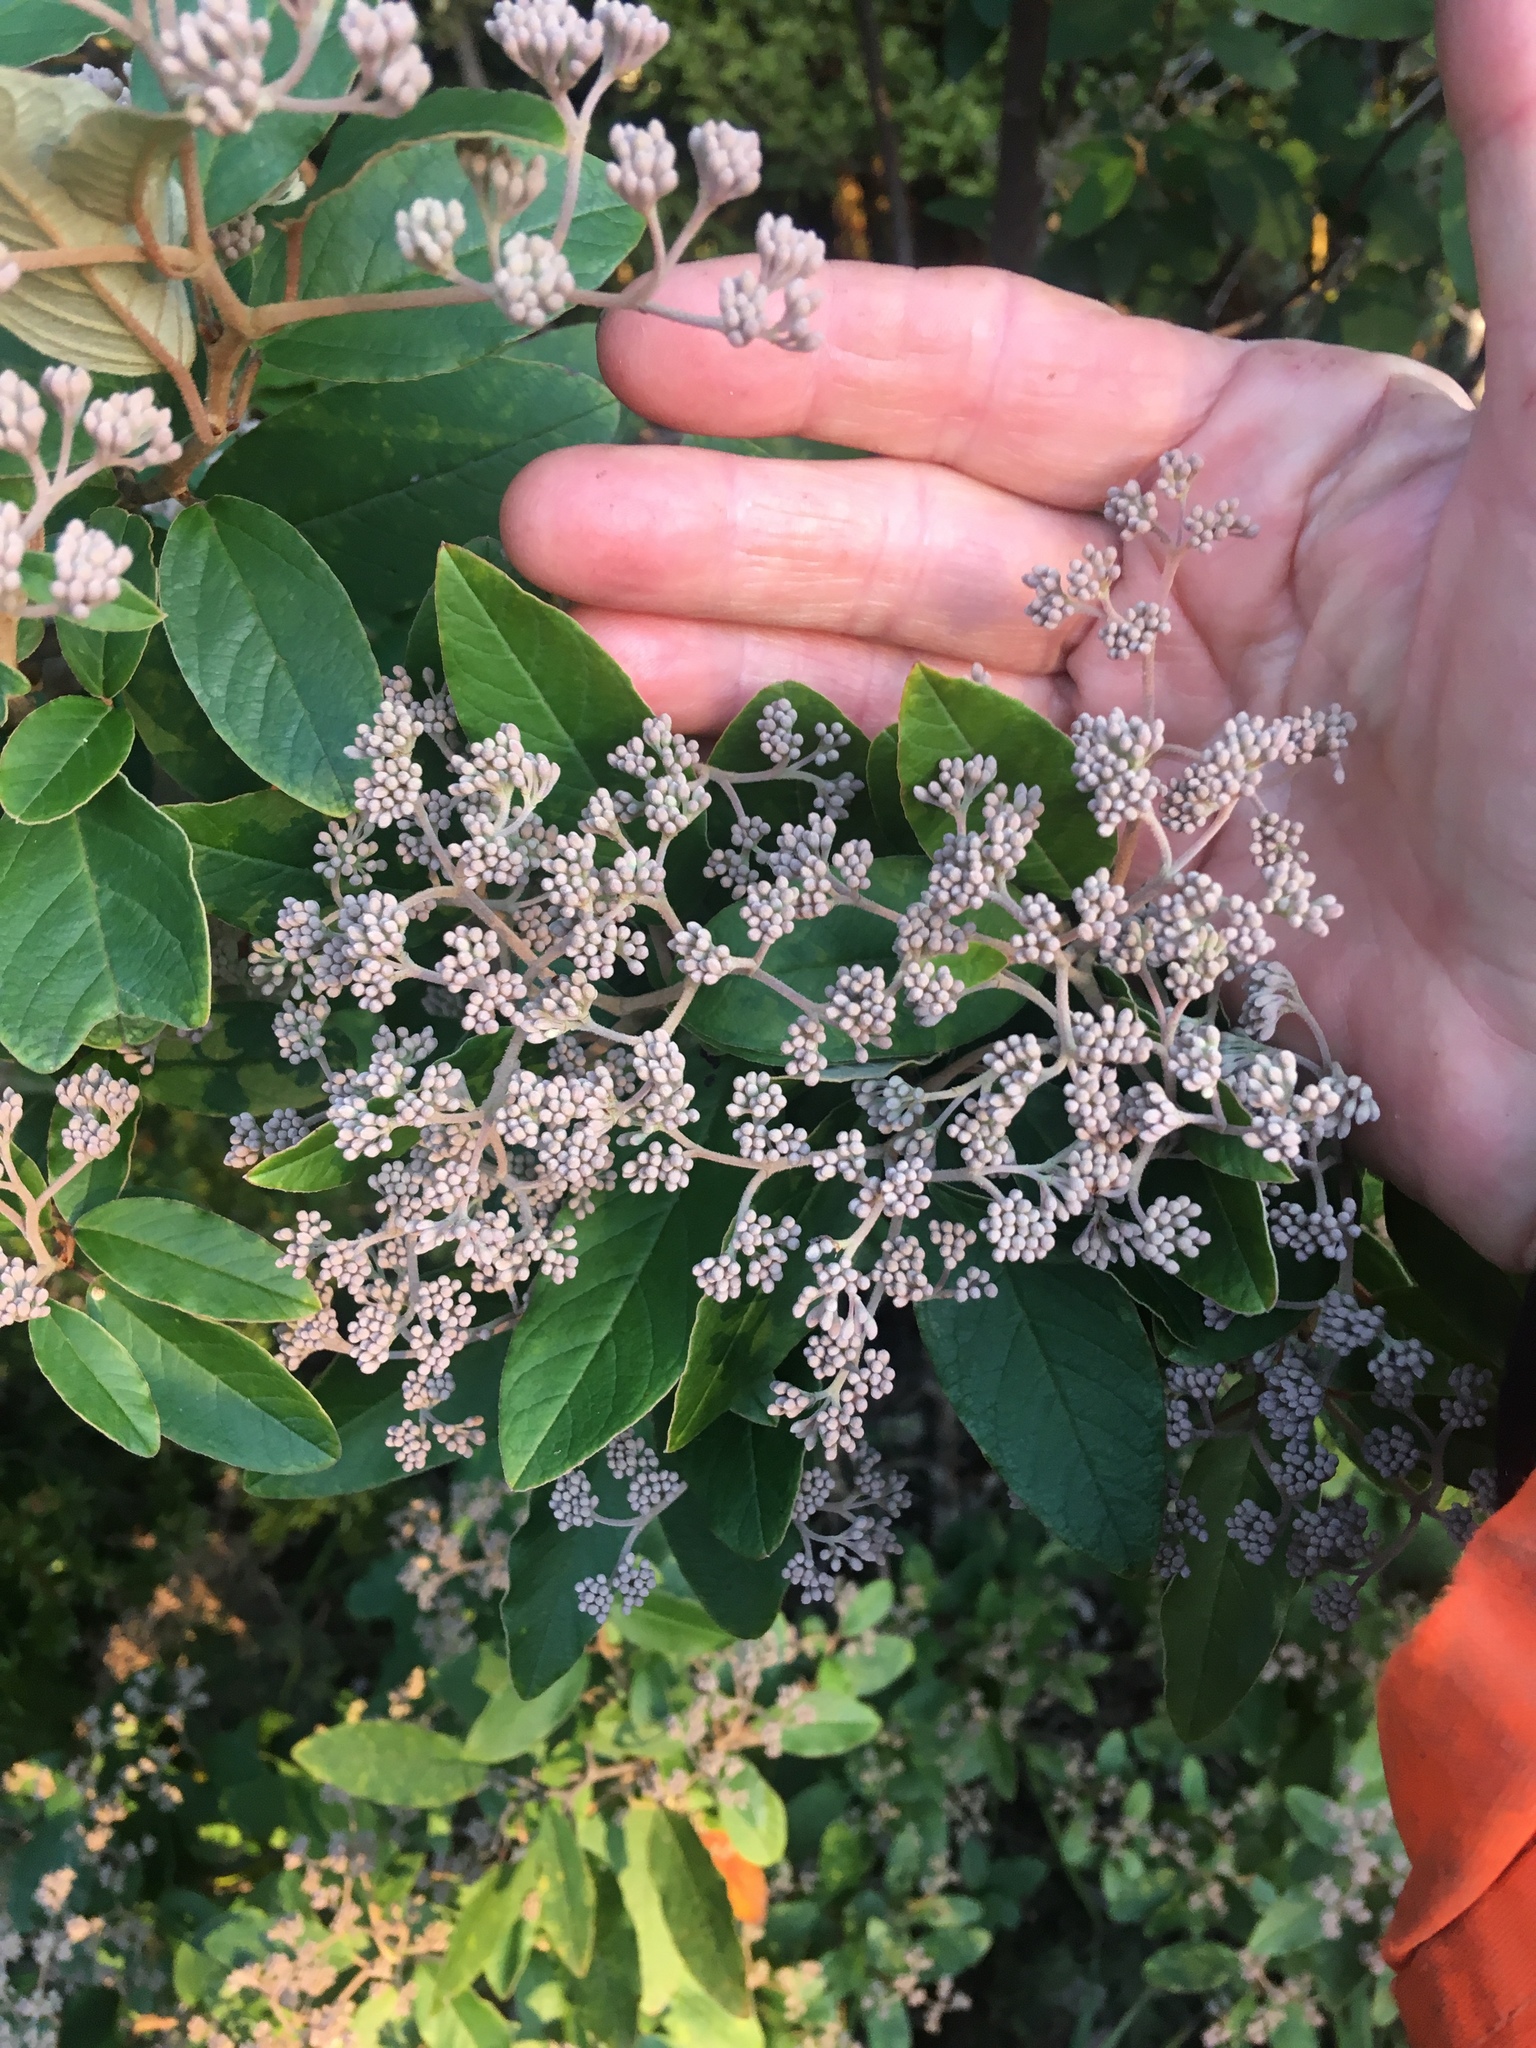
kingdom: Plantae
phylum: Tracheophyta
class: Magnoliopsida
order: Rosales
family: Rhamnaceae
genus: Pomaderris
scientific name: Pomaderris kumeraho
